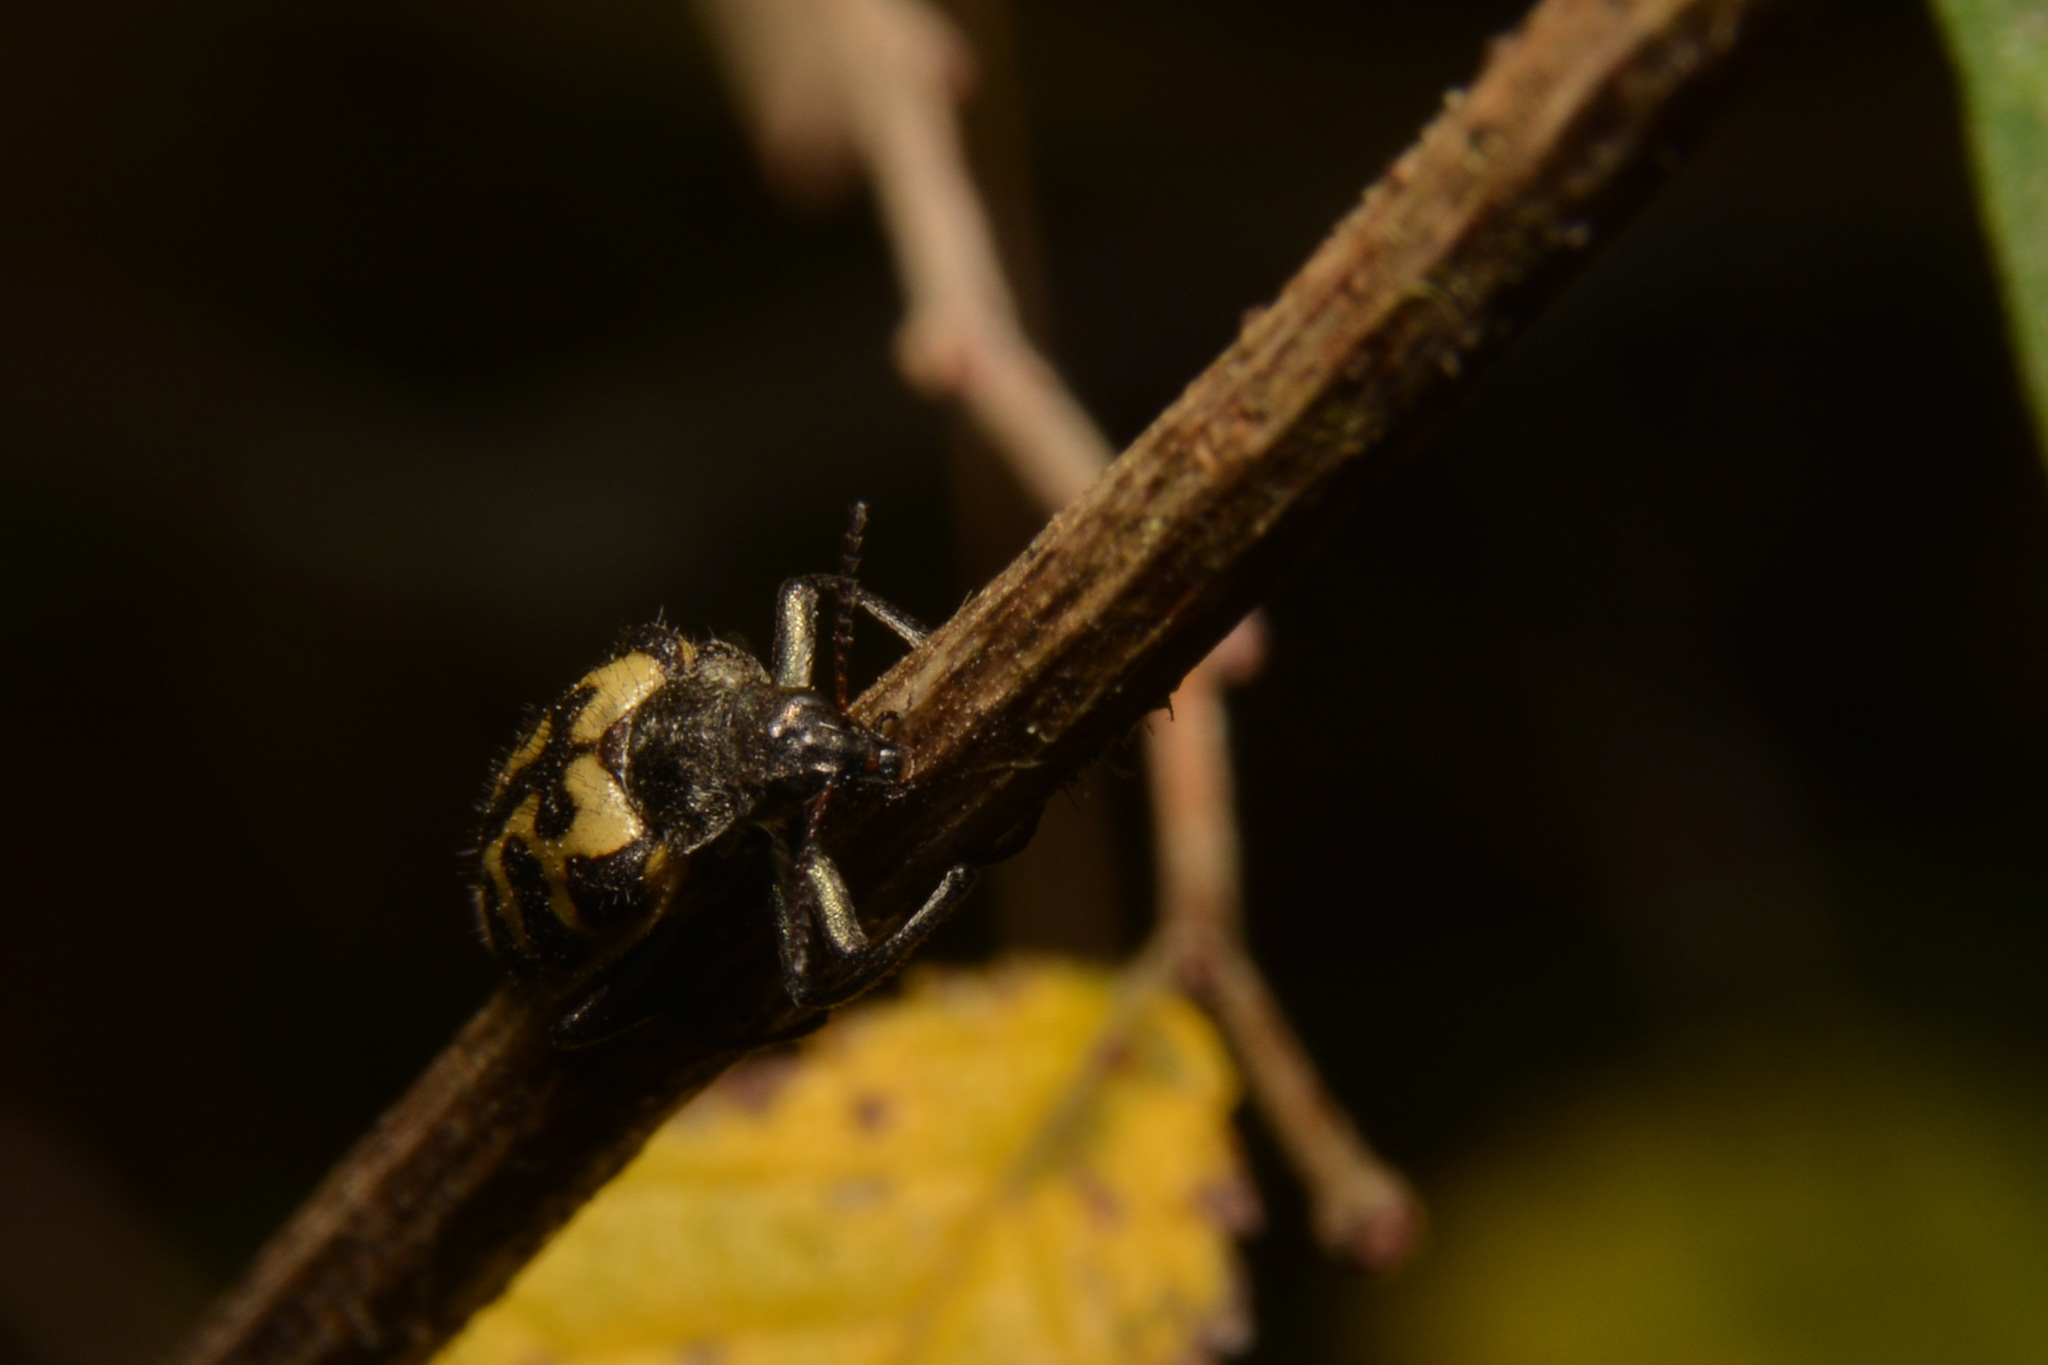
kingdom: Animalia
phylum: Arthropoda
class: Insecta
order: Coleoptera
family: Melyridae
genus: Astylus
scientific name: Astylus atromaculatus
